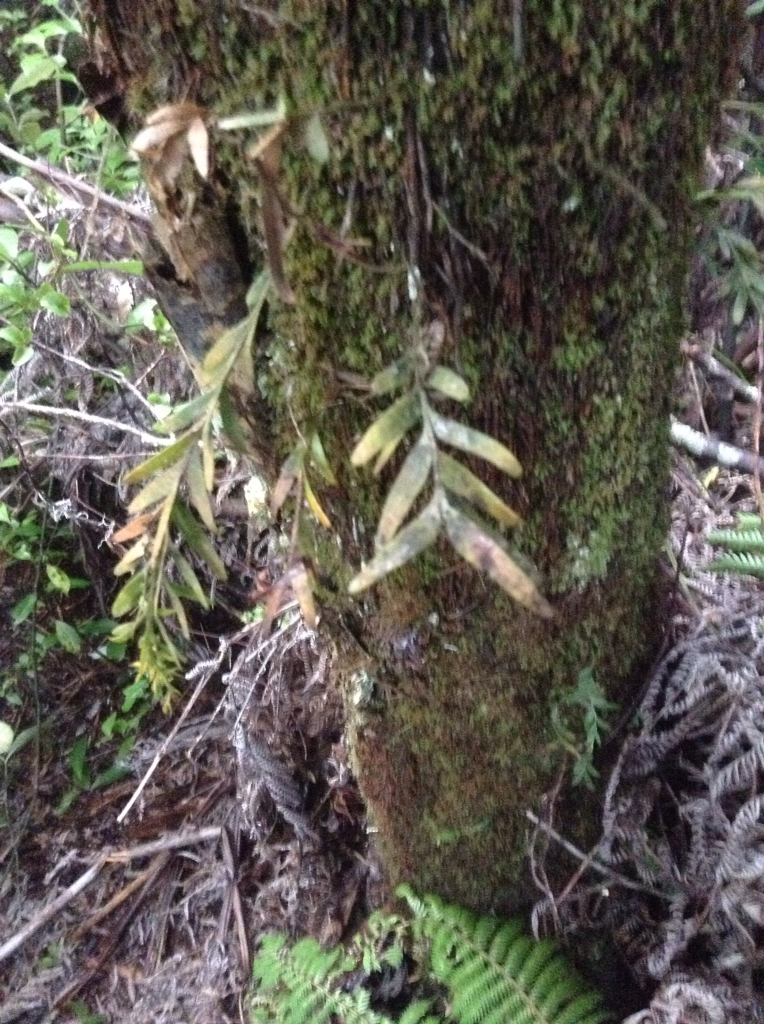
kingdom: Plantae
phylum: Tracheophyta
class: Polypodiopsida
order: Psilotales
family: Psilotaceae
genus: Tmesipteris
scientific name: Tmesipteris elongata
